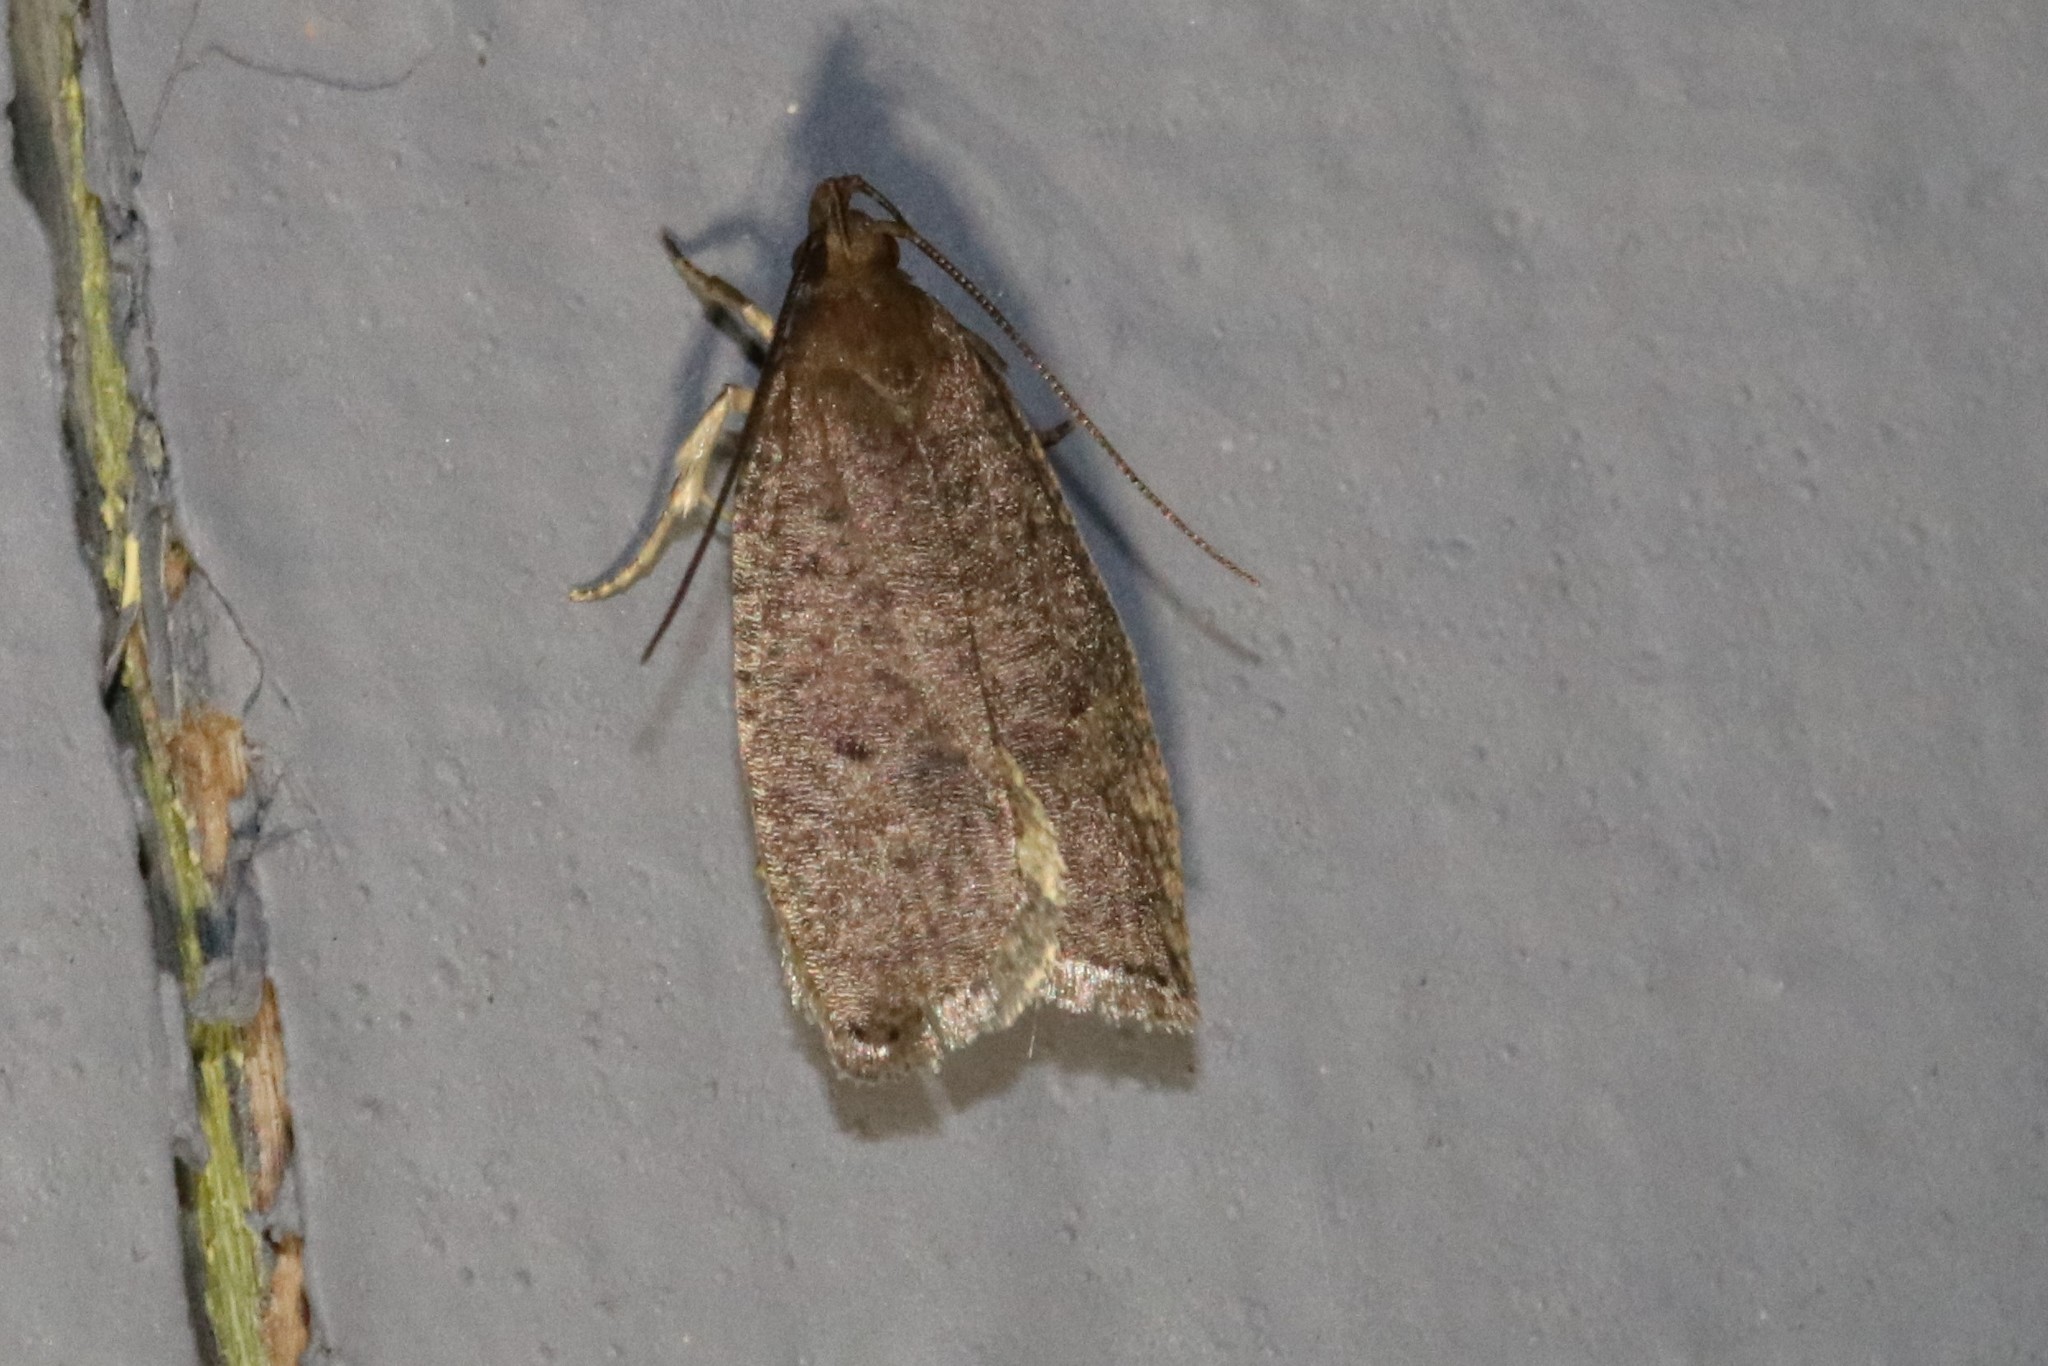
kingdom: Animalia
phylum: Arthropoda
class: Insecta
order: Lepidoptera
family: Depressariidae
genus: Psilocorsis
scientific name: Psilocorsis reflexella
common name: Dotted leaftier moth
